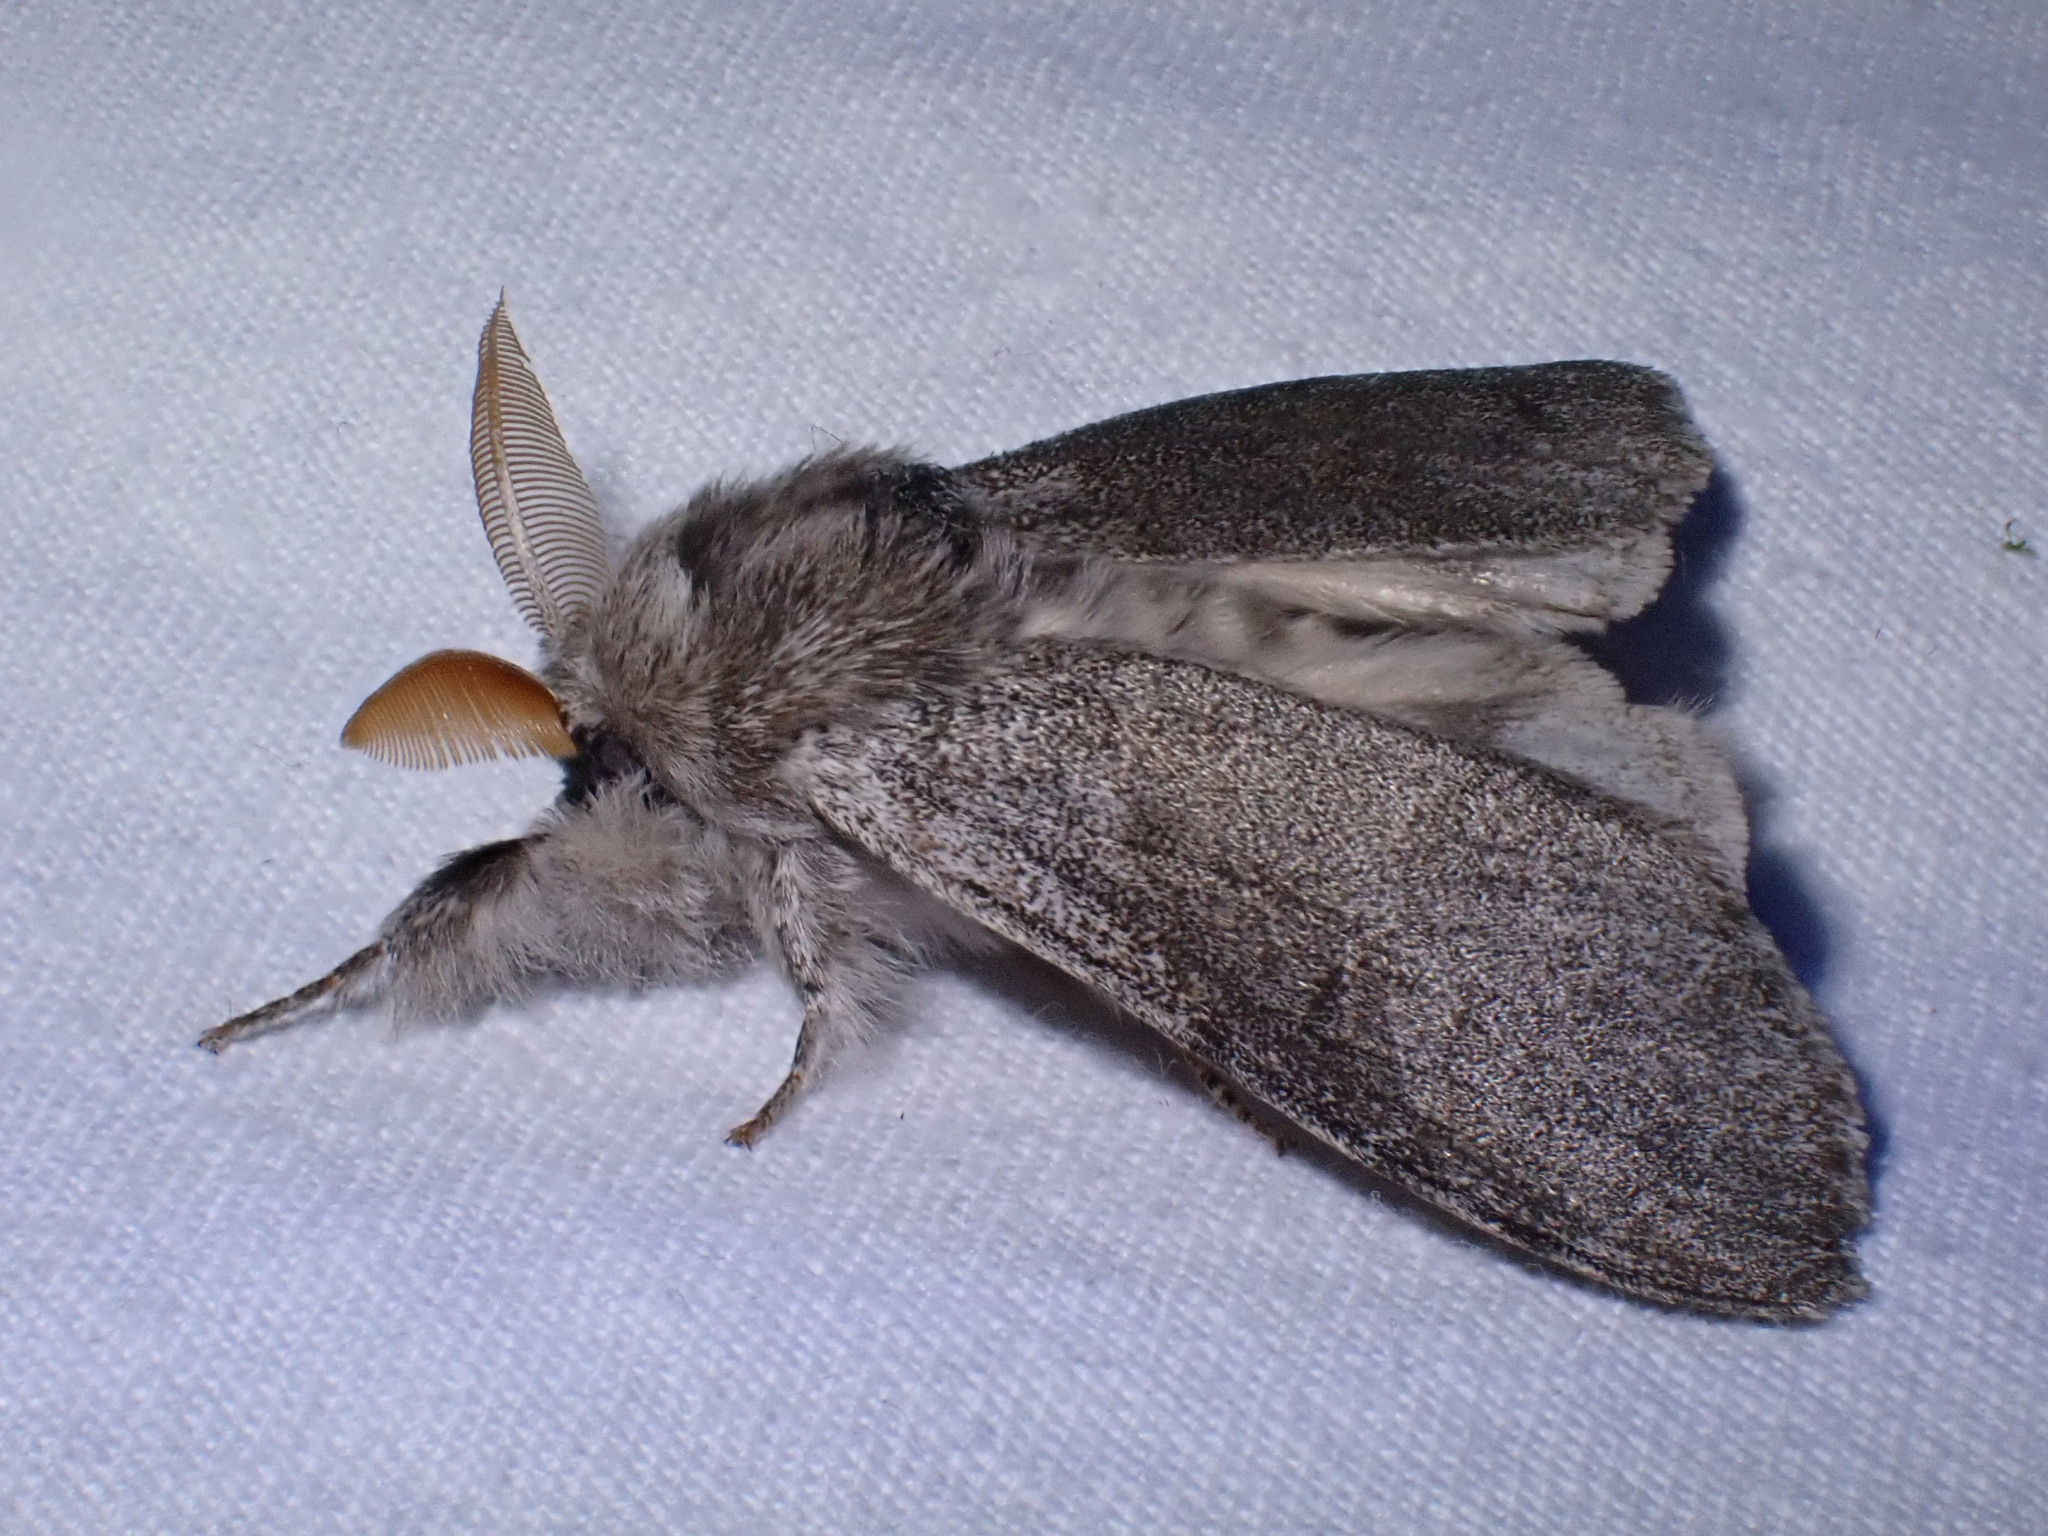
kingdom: Animalia
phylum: Arthropoda
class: Insecta
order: Lepidoptera
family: Erebidae
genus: Calliteara
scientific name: Calliteara pudibunda
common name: Pale tussock
